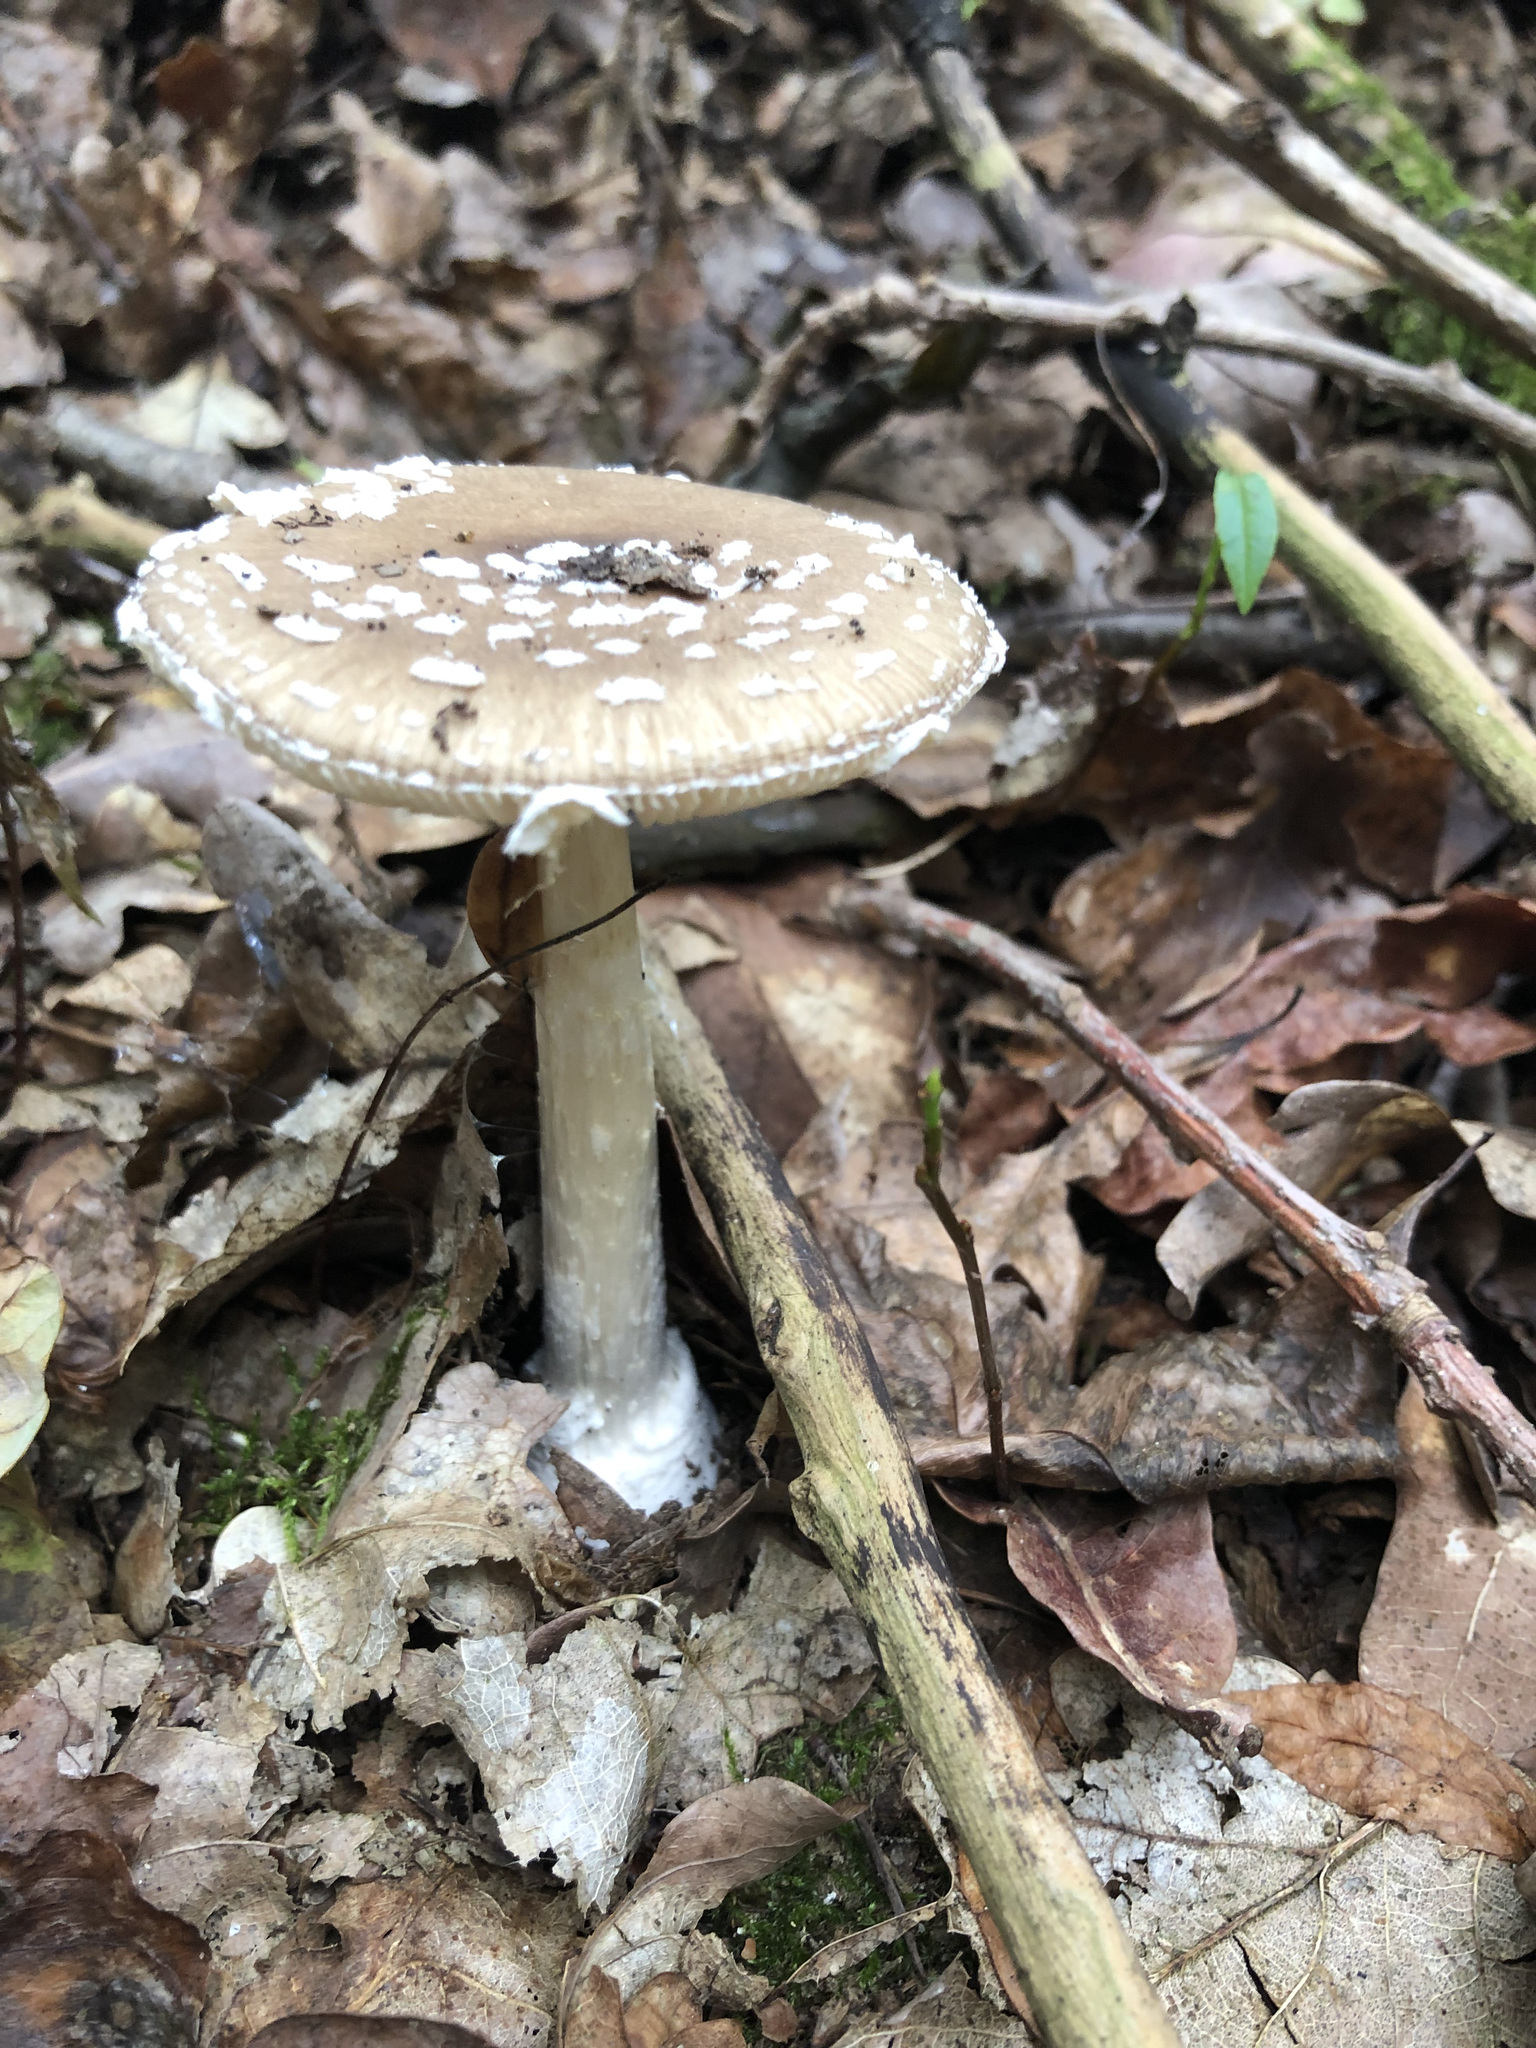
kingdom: Fungi
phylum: Basidiomycota
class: Agaricomycetes
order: Agaricales
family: Amanitaceae
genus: Amanita
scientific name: Amanita pantherina
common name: Panthercap
